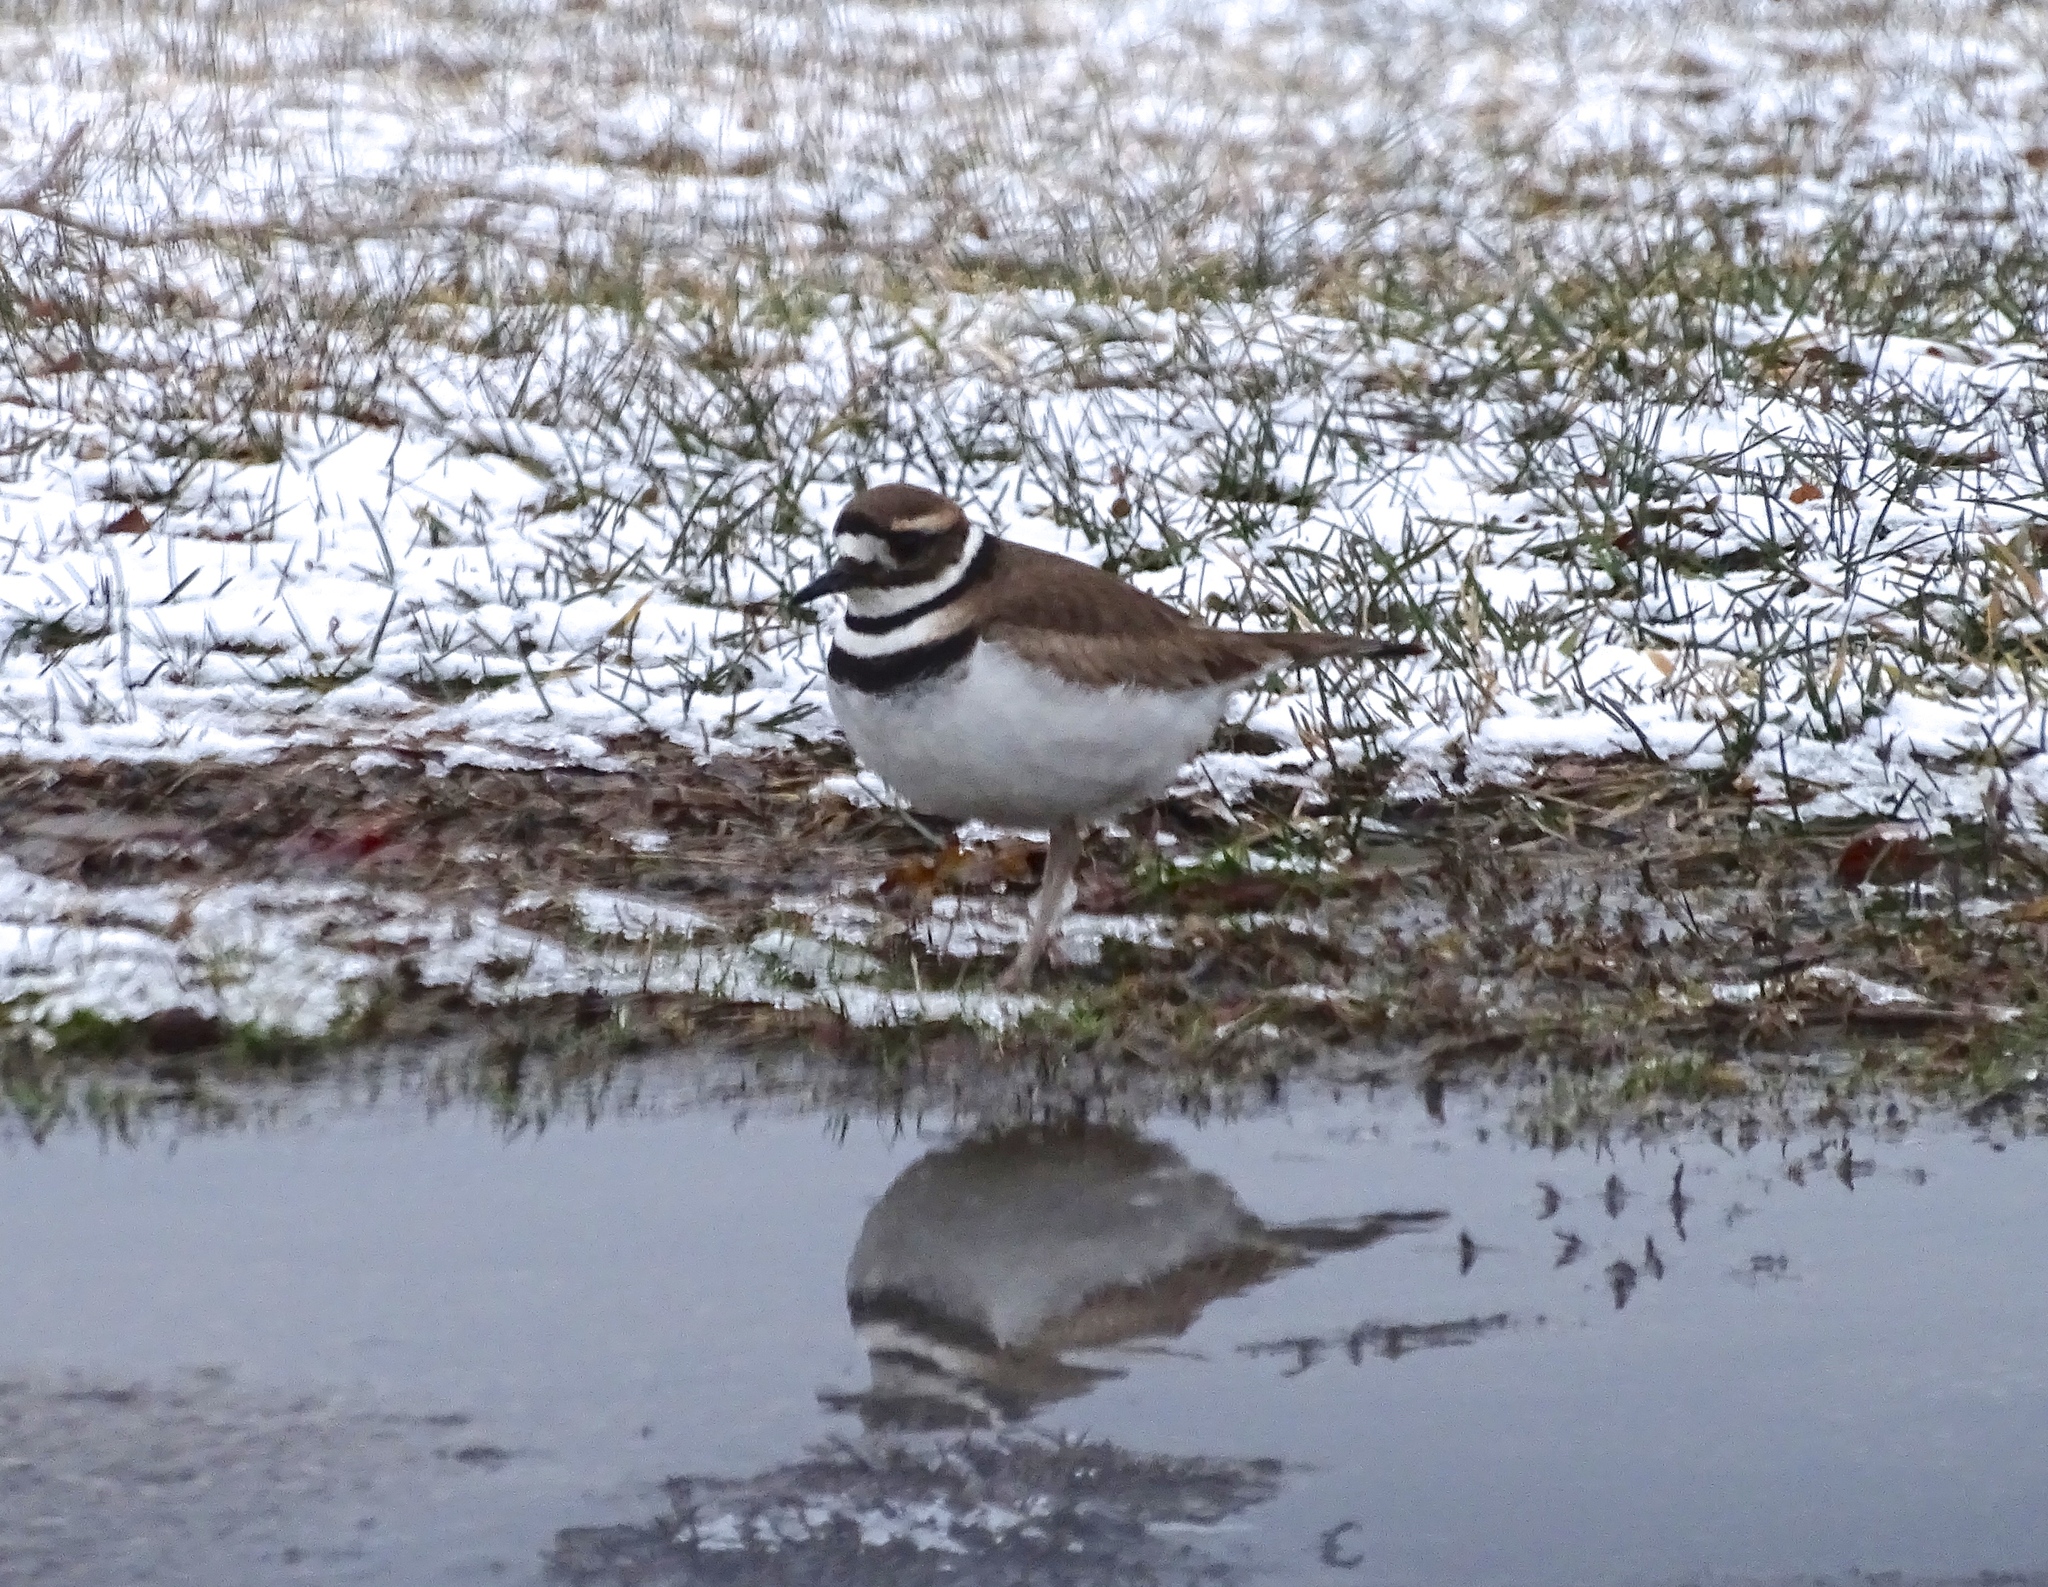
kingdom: Animalia
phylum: Chordata
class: Aves
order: Charadriiformes
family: Charadriidae
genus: Charadrius
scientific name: Charadrius vociferus
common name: Killdeer
